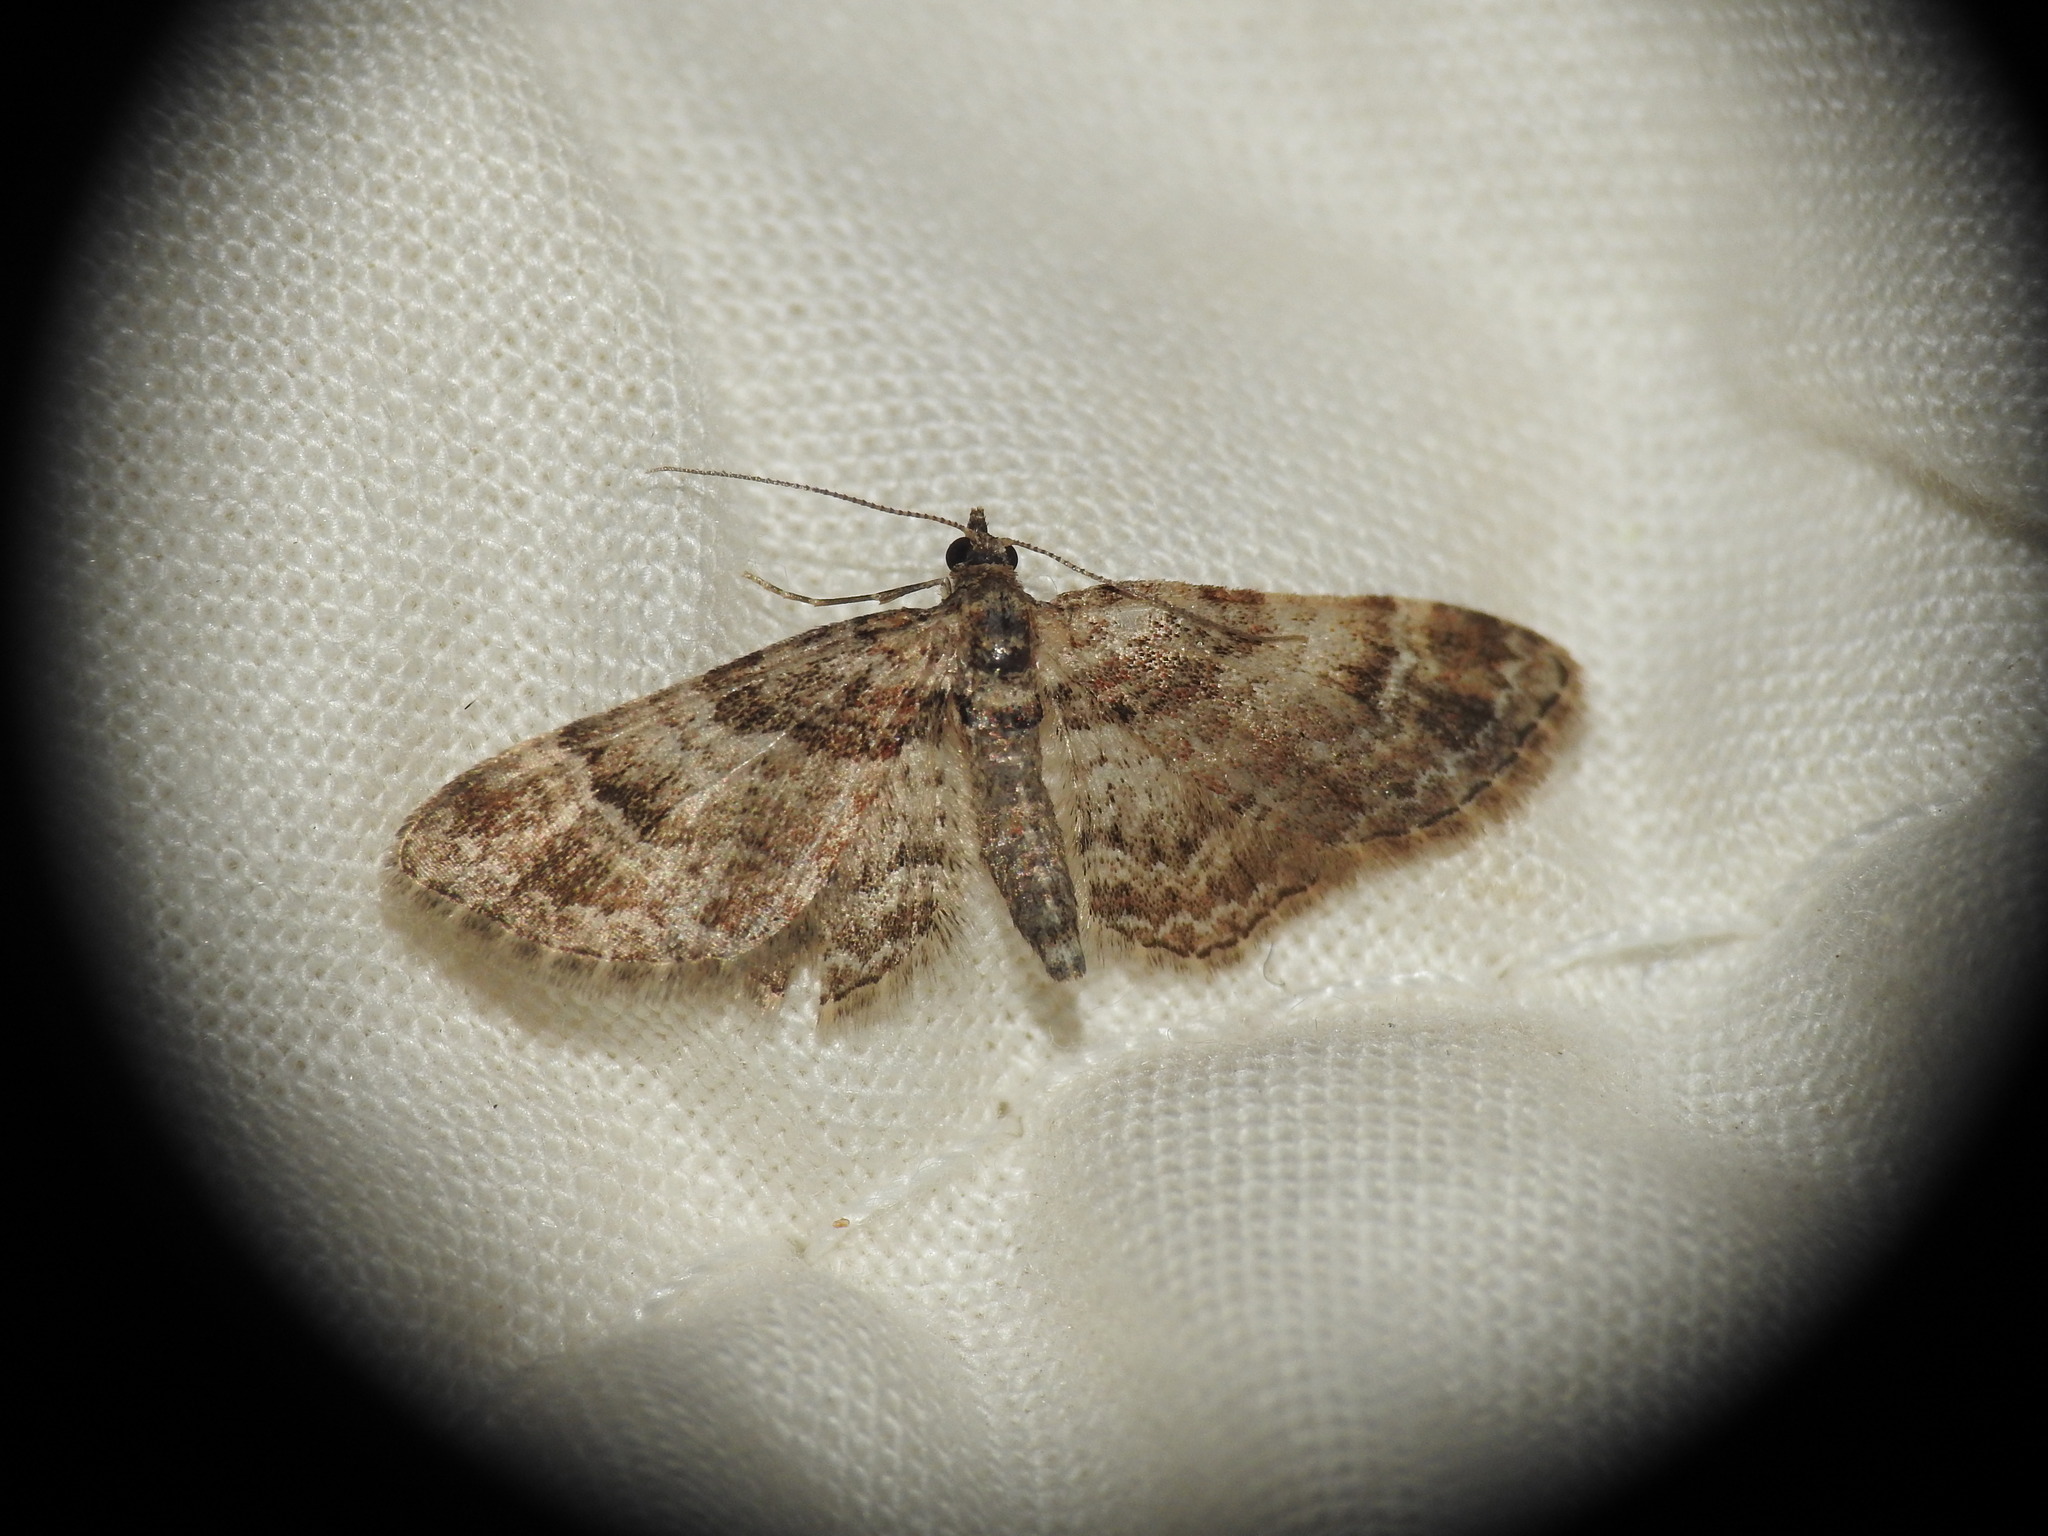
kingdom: Animalia
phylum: Arthropoda
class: Insecta
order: Lepidoptera
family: Geometridae
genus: Gymnoscelis
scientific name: Gymnoscelis rufifasciata
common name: Double-striped pug
